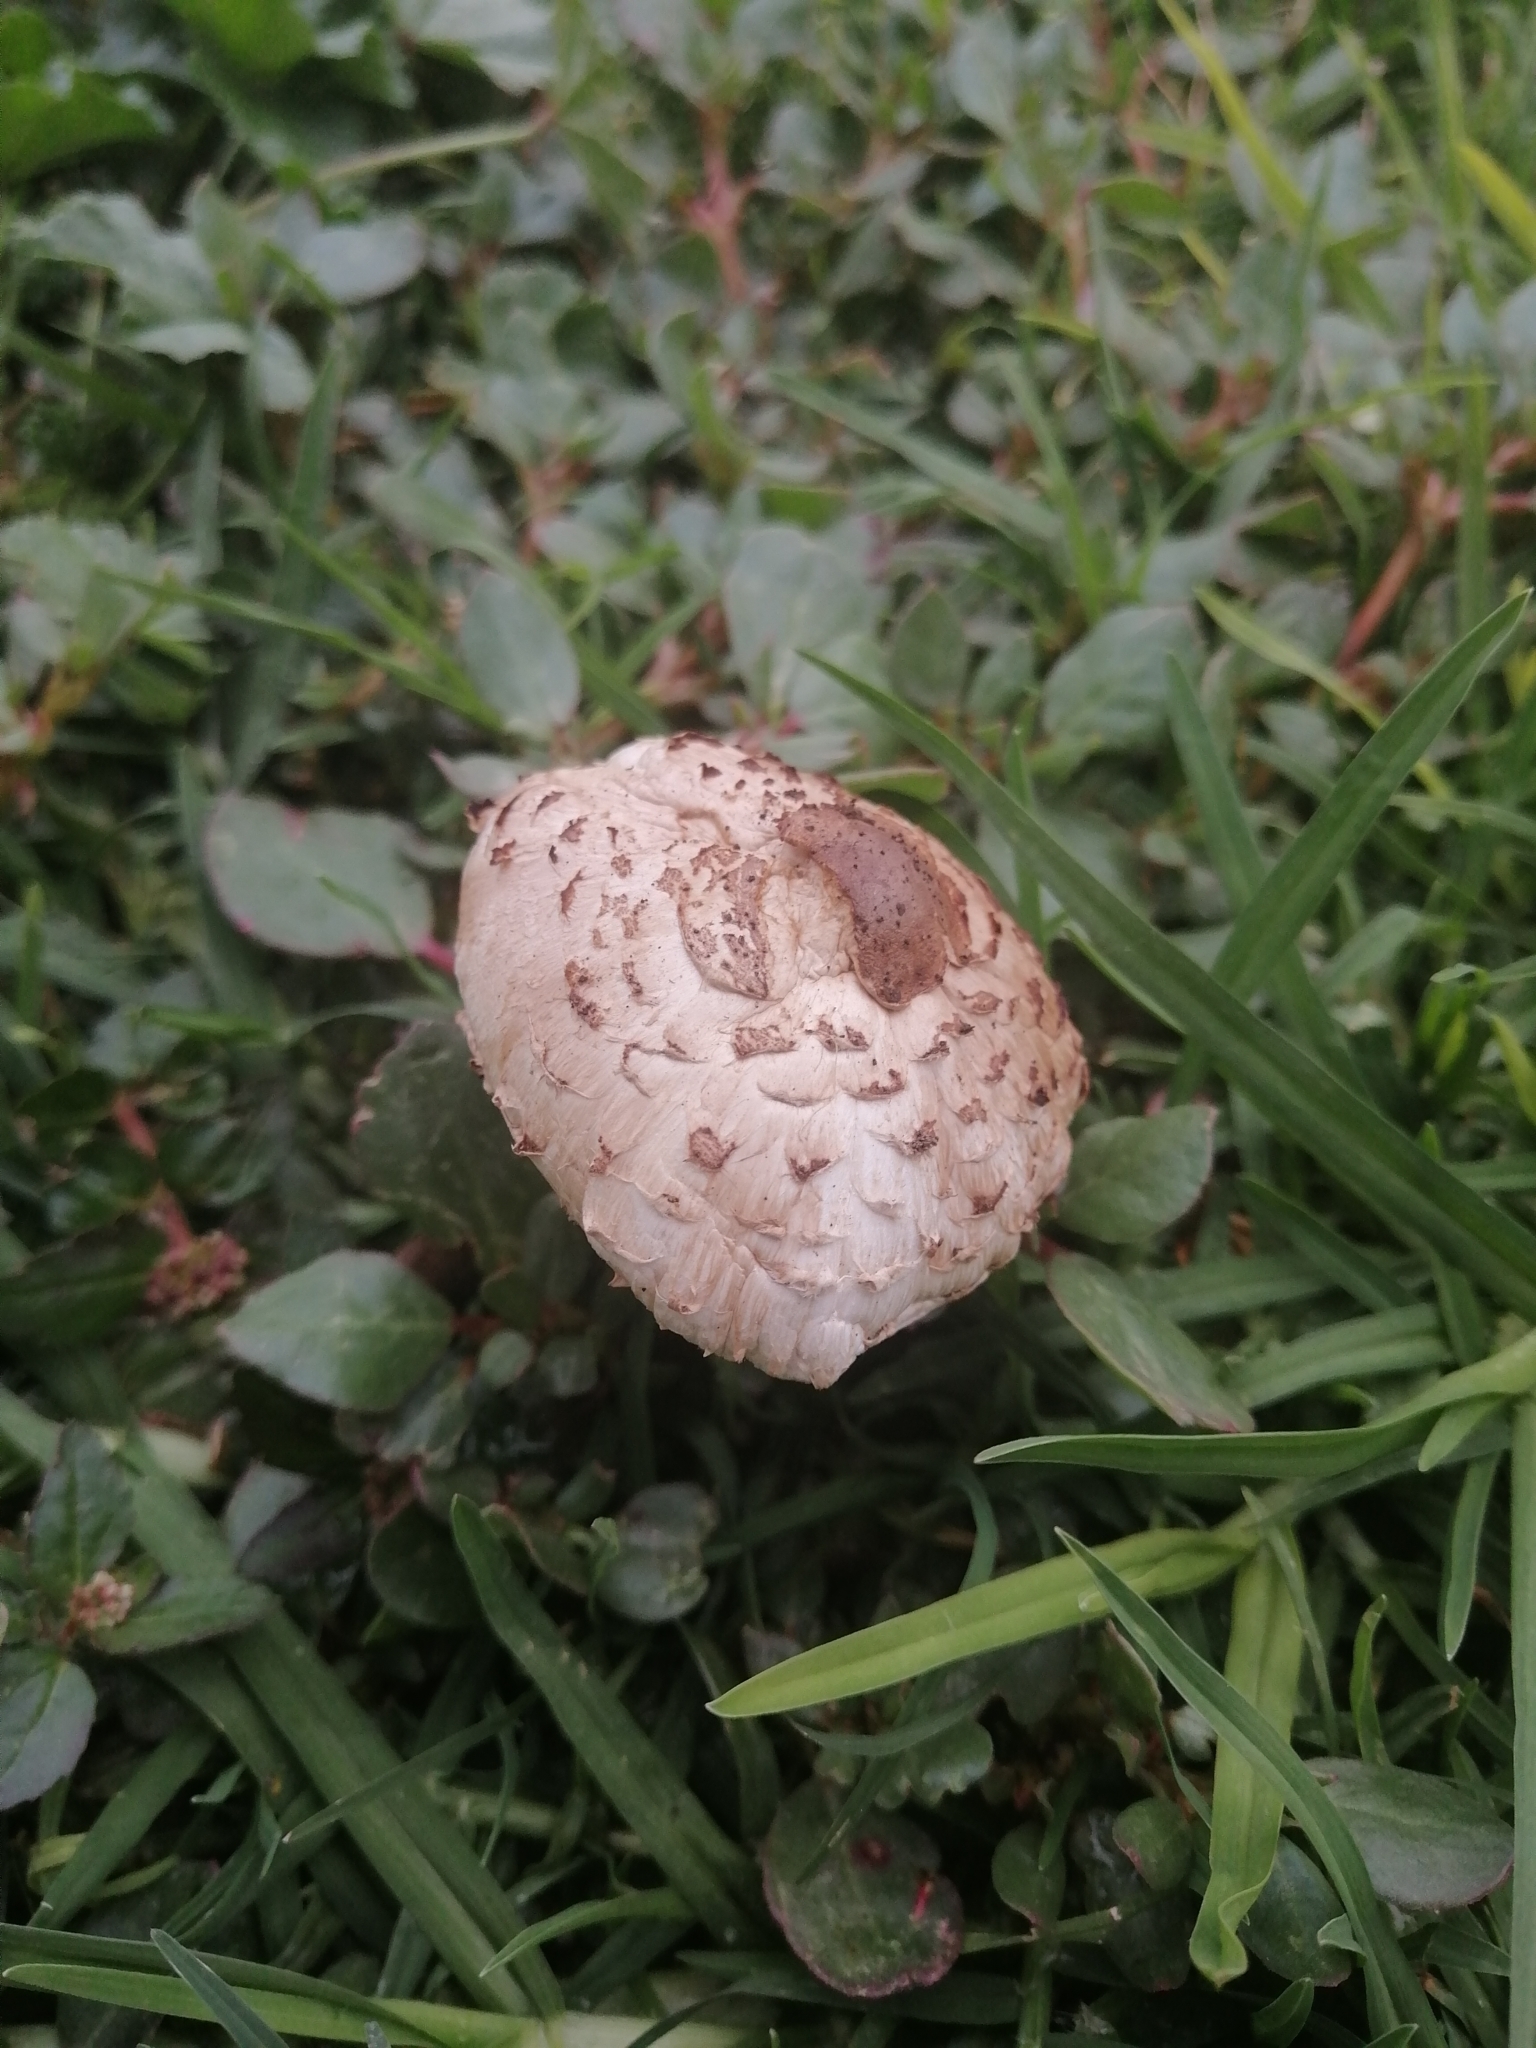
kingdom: Fungi
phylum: Basidiomycota
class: Agaricomycetes
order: Agaricales
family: Agaricaceae
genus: Chlorophyllum
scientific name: Chlorophyllum molybdites
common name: False parasol
